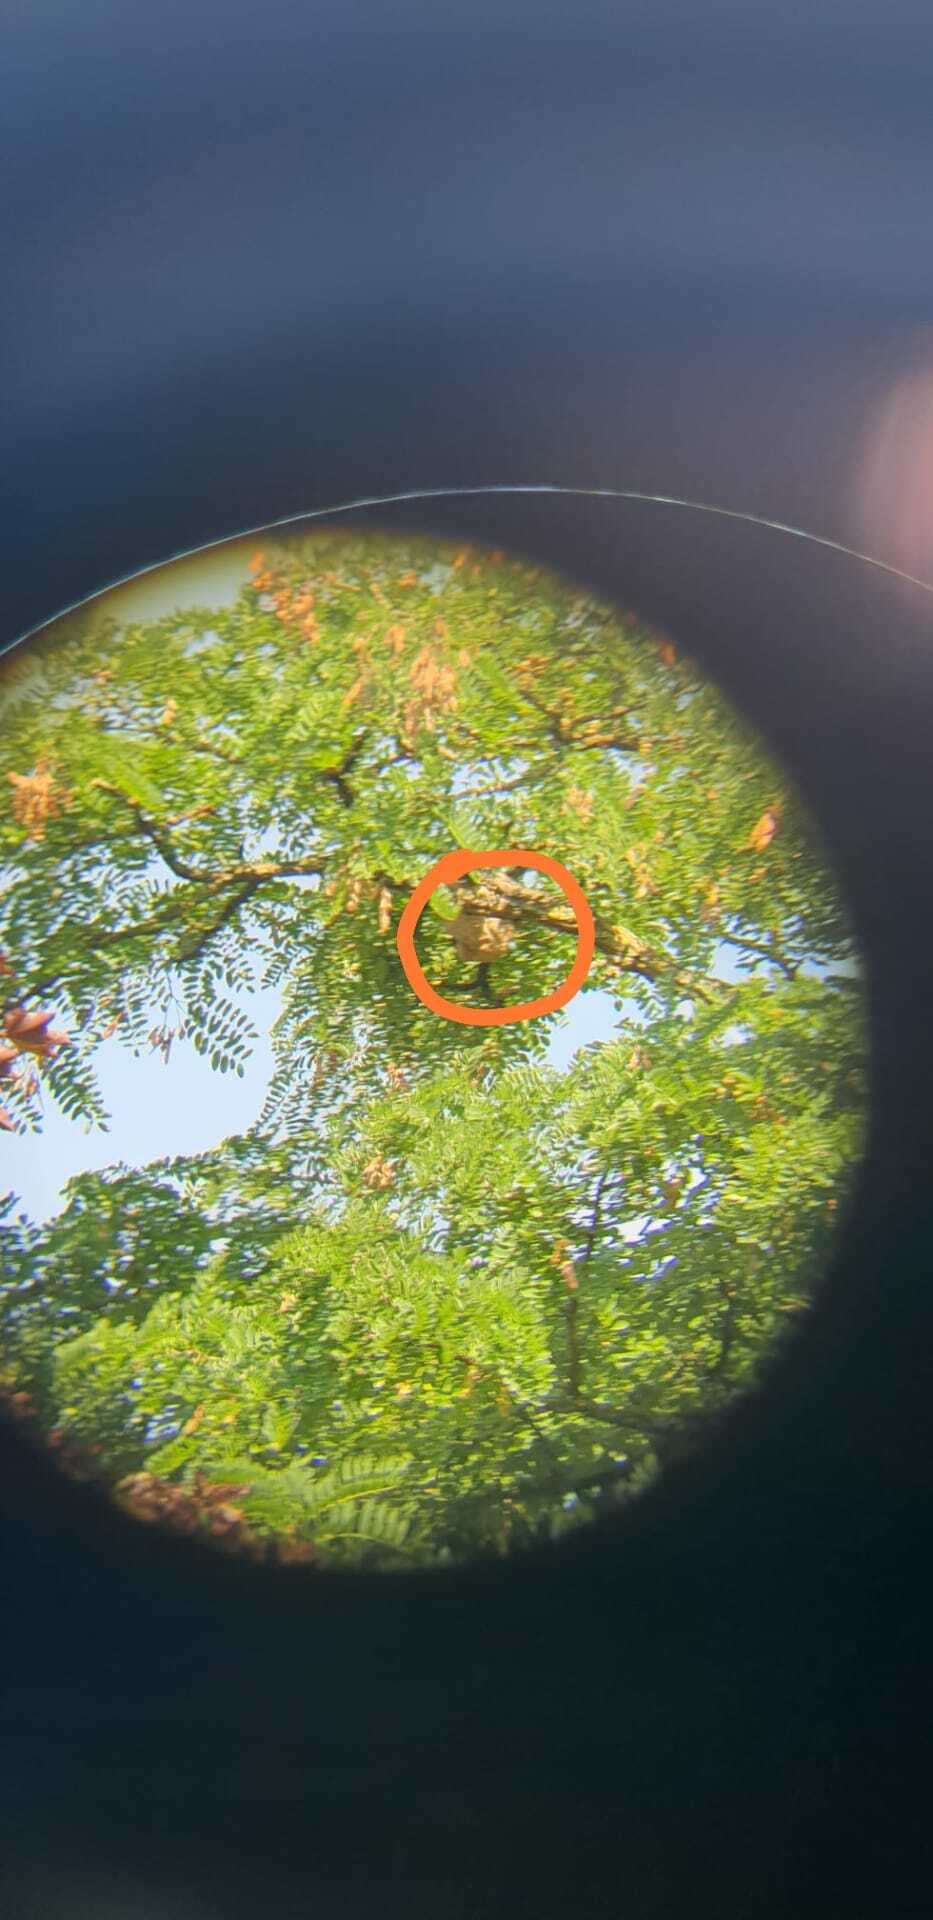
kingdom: Animalia
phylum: Arthropoda
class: Insecta
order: Hymenoptera
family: Vespidae
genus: Vespa
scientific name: Vespa velutina
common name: Asian hornet
